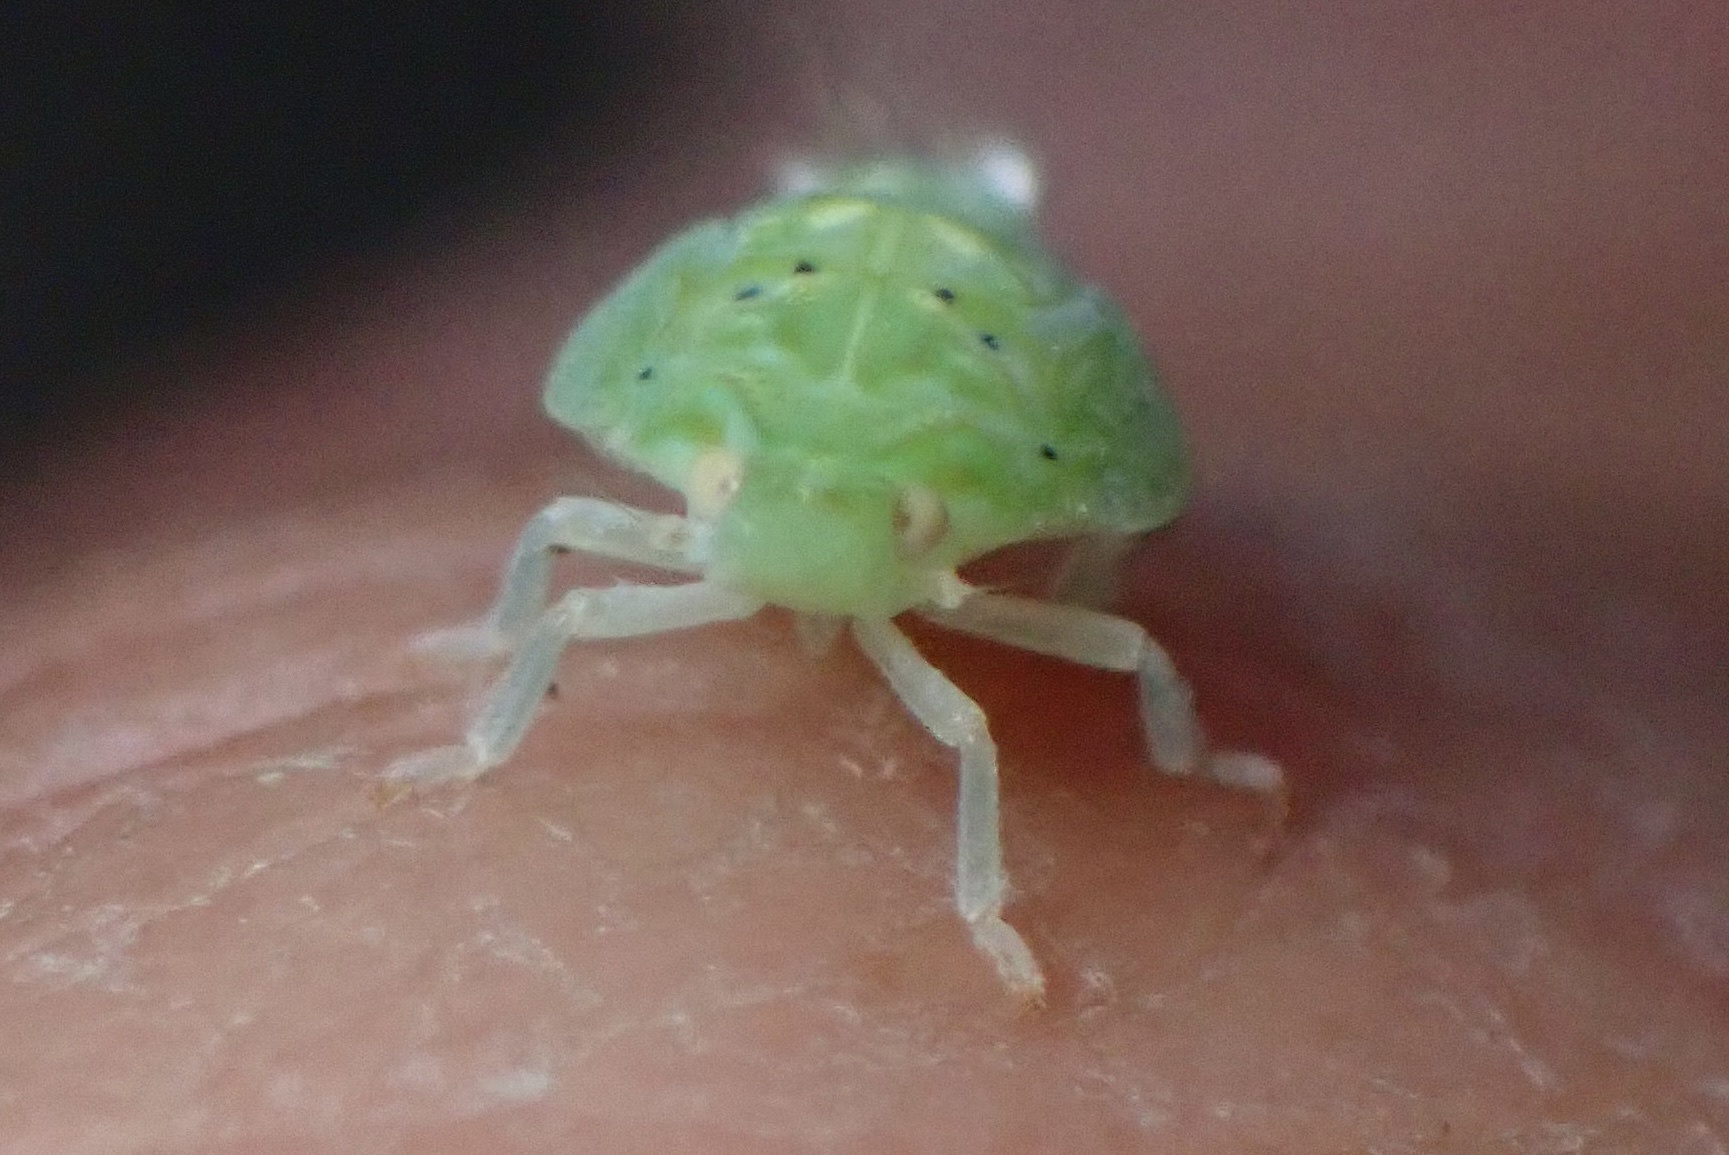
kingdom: Animalia
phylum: Arthropoda
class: Insecta
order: Hemiptera
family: Flatidae
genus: Siphanta
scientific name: Siphanta acuta
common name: Torpedo bug
